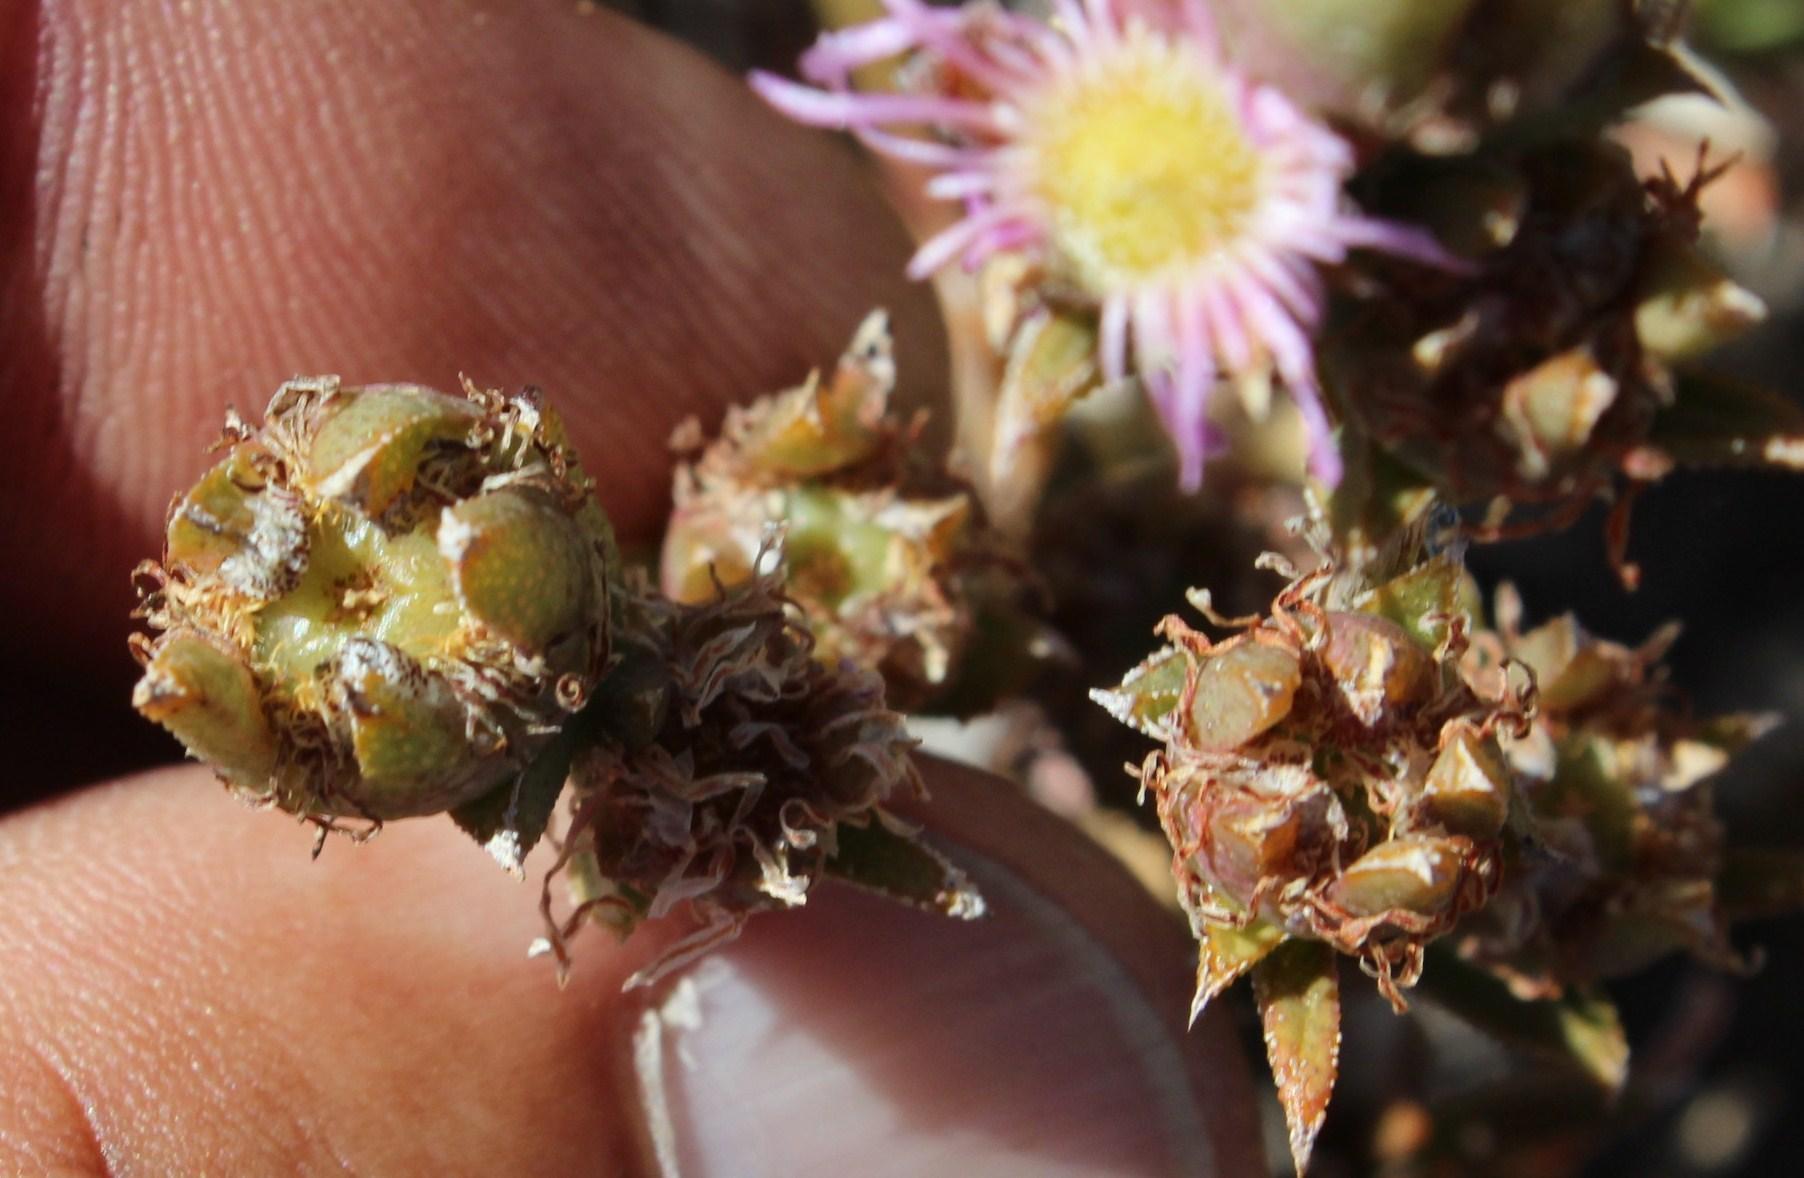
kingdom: Plantae
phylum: Tracheophyta
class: Magnoliopsida
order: Caryophyllales
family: Aizoaceae
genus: Erepsia
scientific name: Erepsia bracteata
